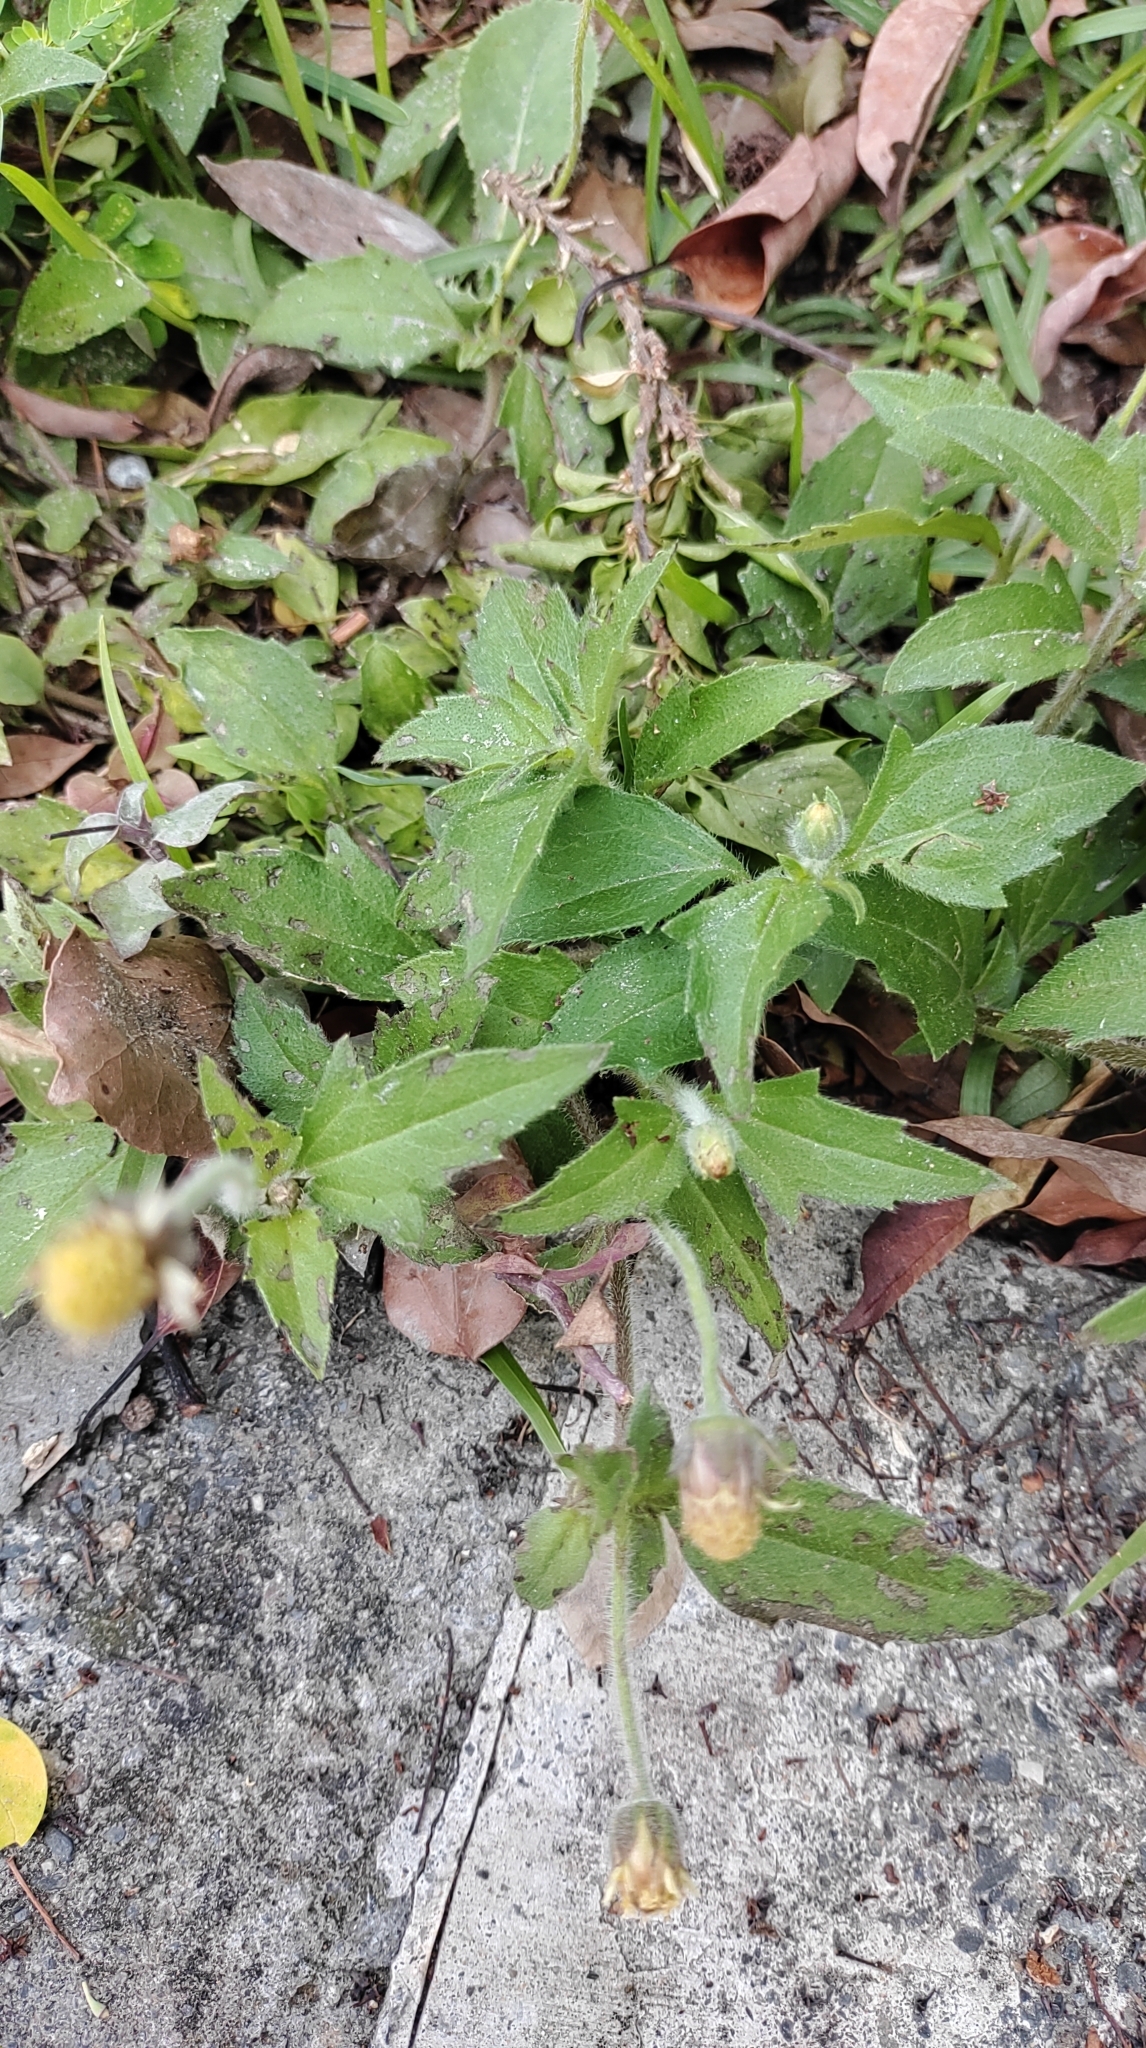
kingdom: Plantae
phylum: Tracheophyta
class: Magnoliopsida
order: Asterales
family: Asteraceae
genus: Tridax
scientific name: Tridax procumbens
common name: Coatbuttons
